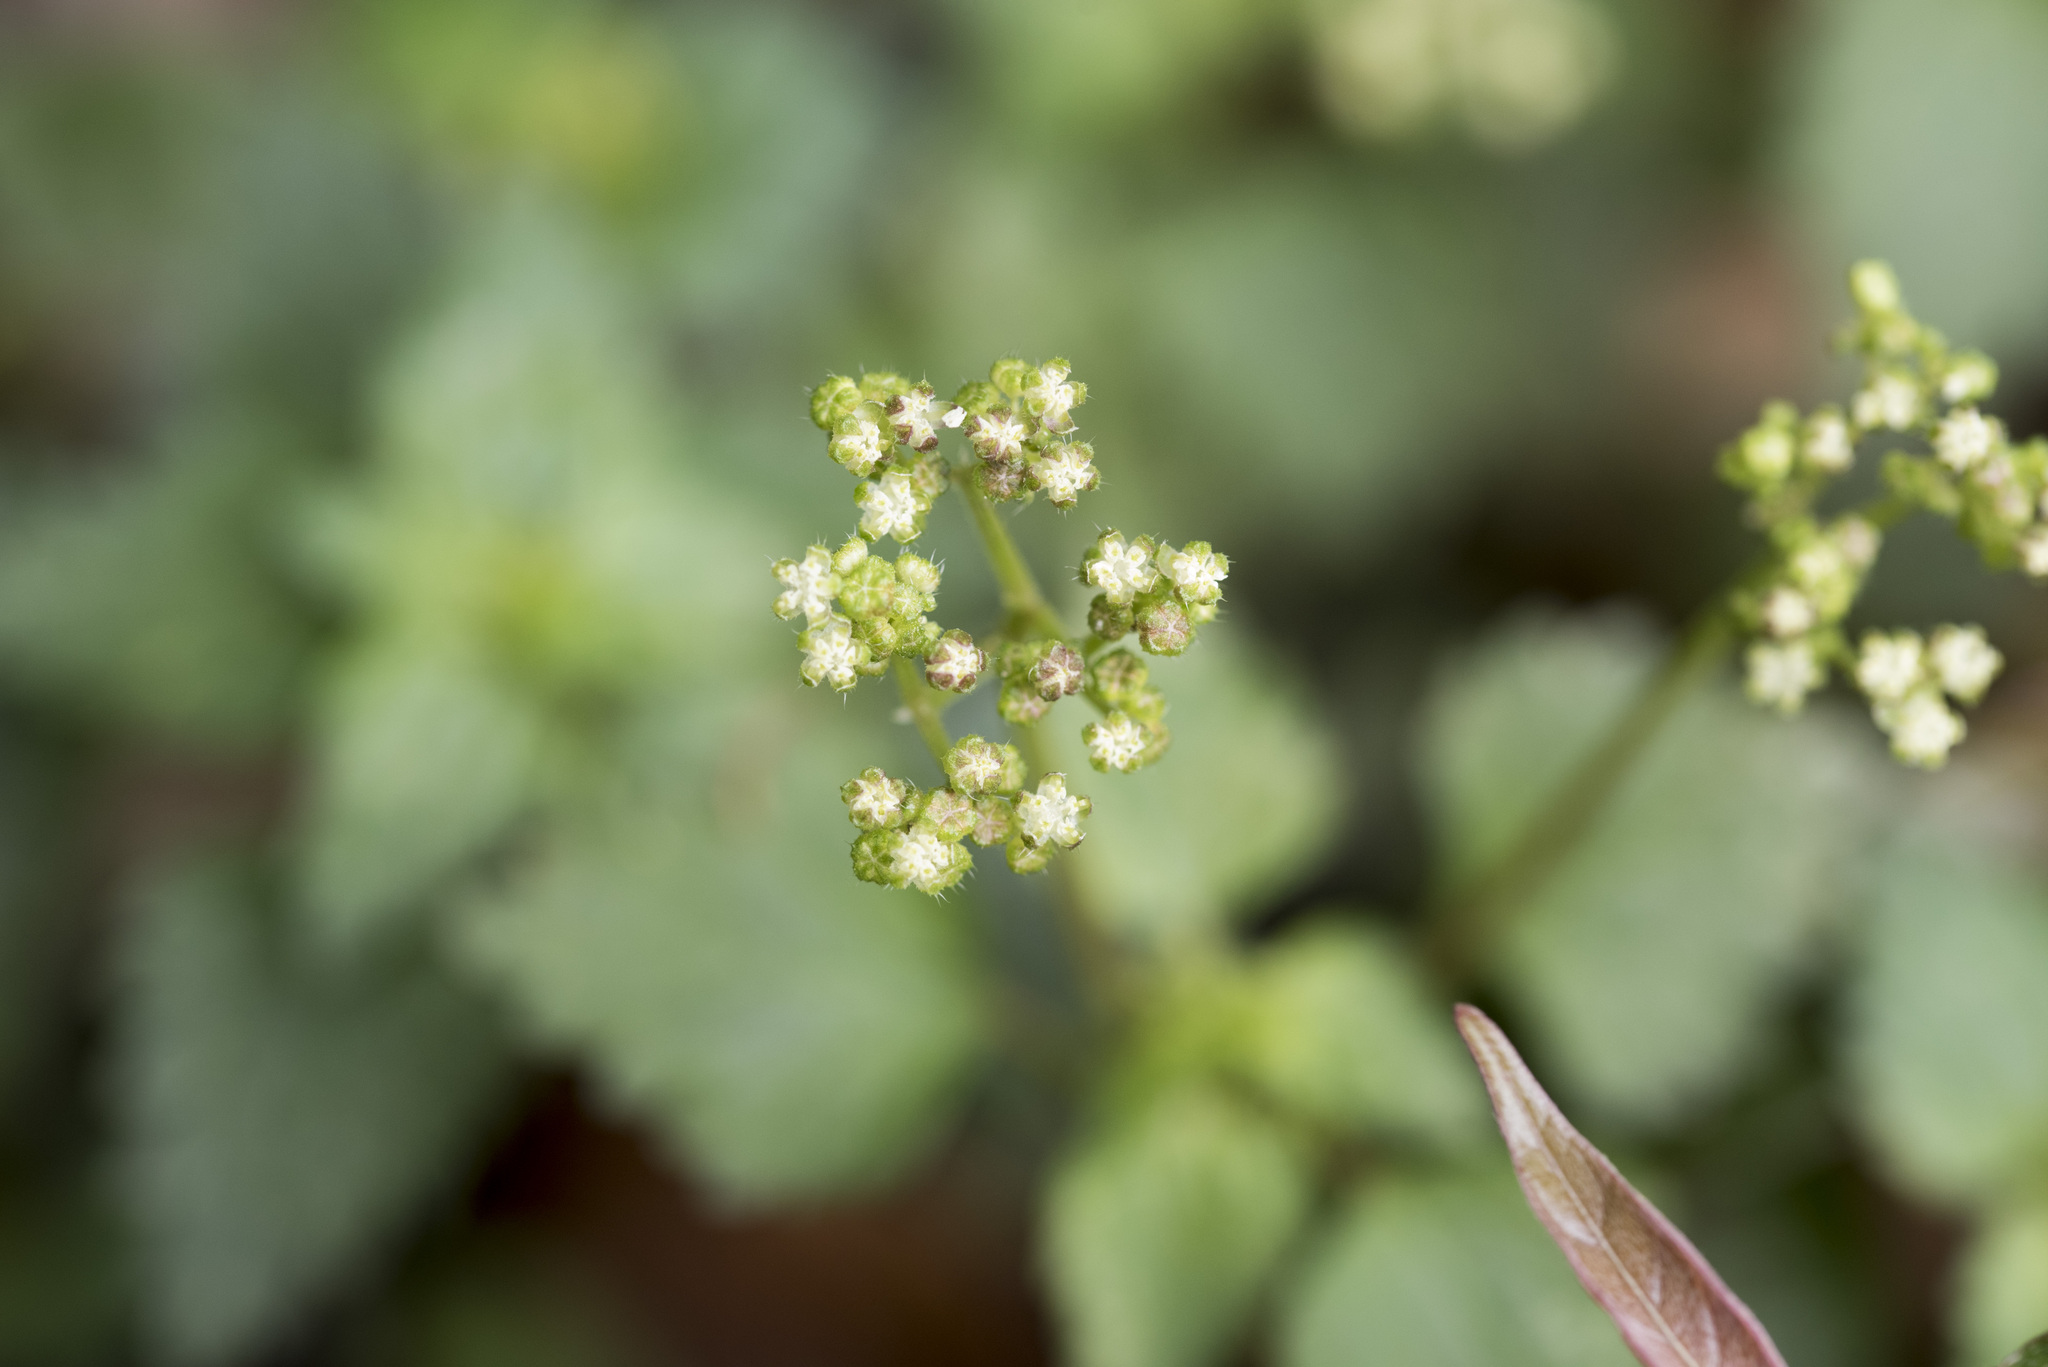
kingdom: Plantae
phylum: Tracheophyta
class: Magnoliopsida
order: Rosales
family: Urticaceae
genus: Nanocnide
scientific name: Nanocnide japonica
